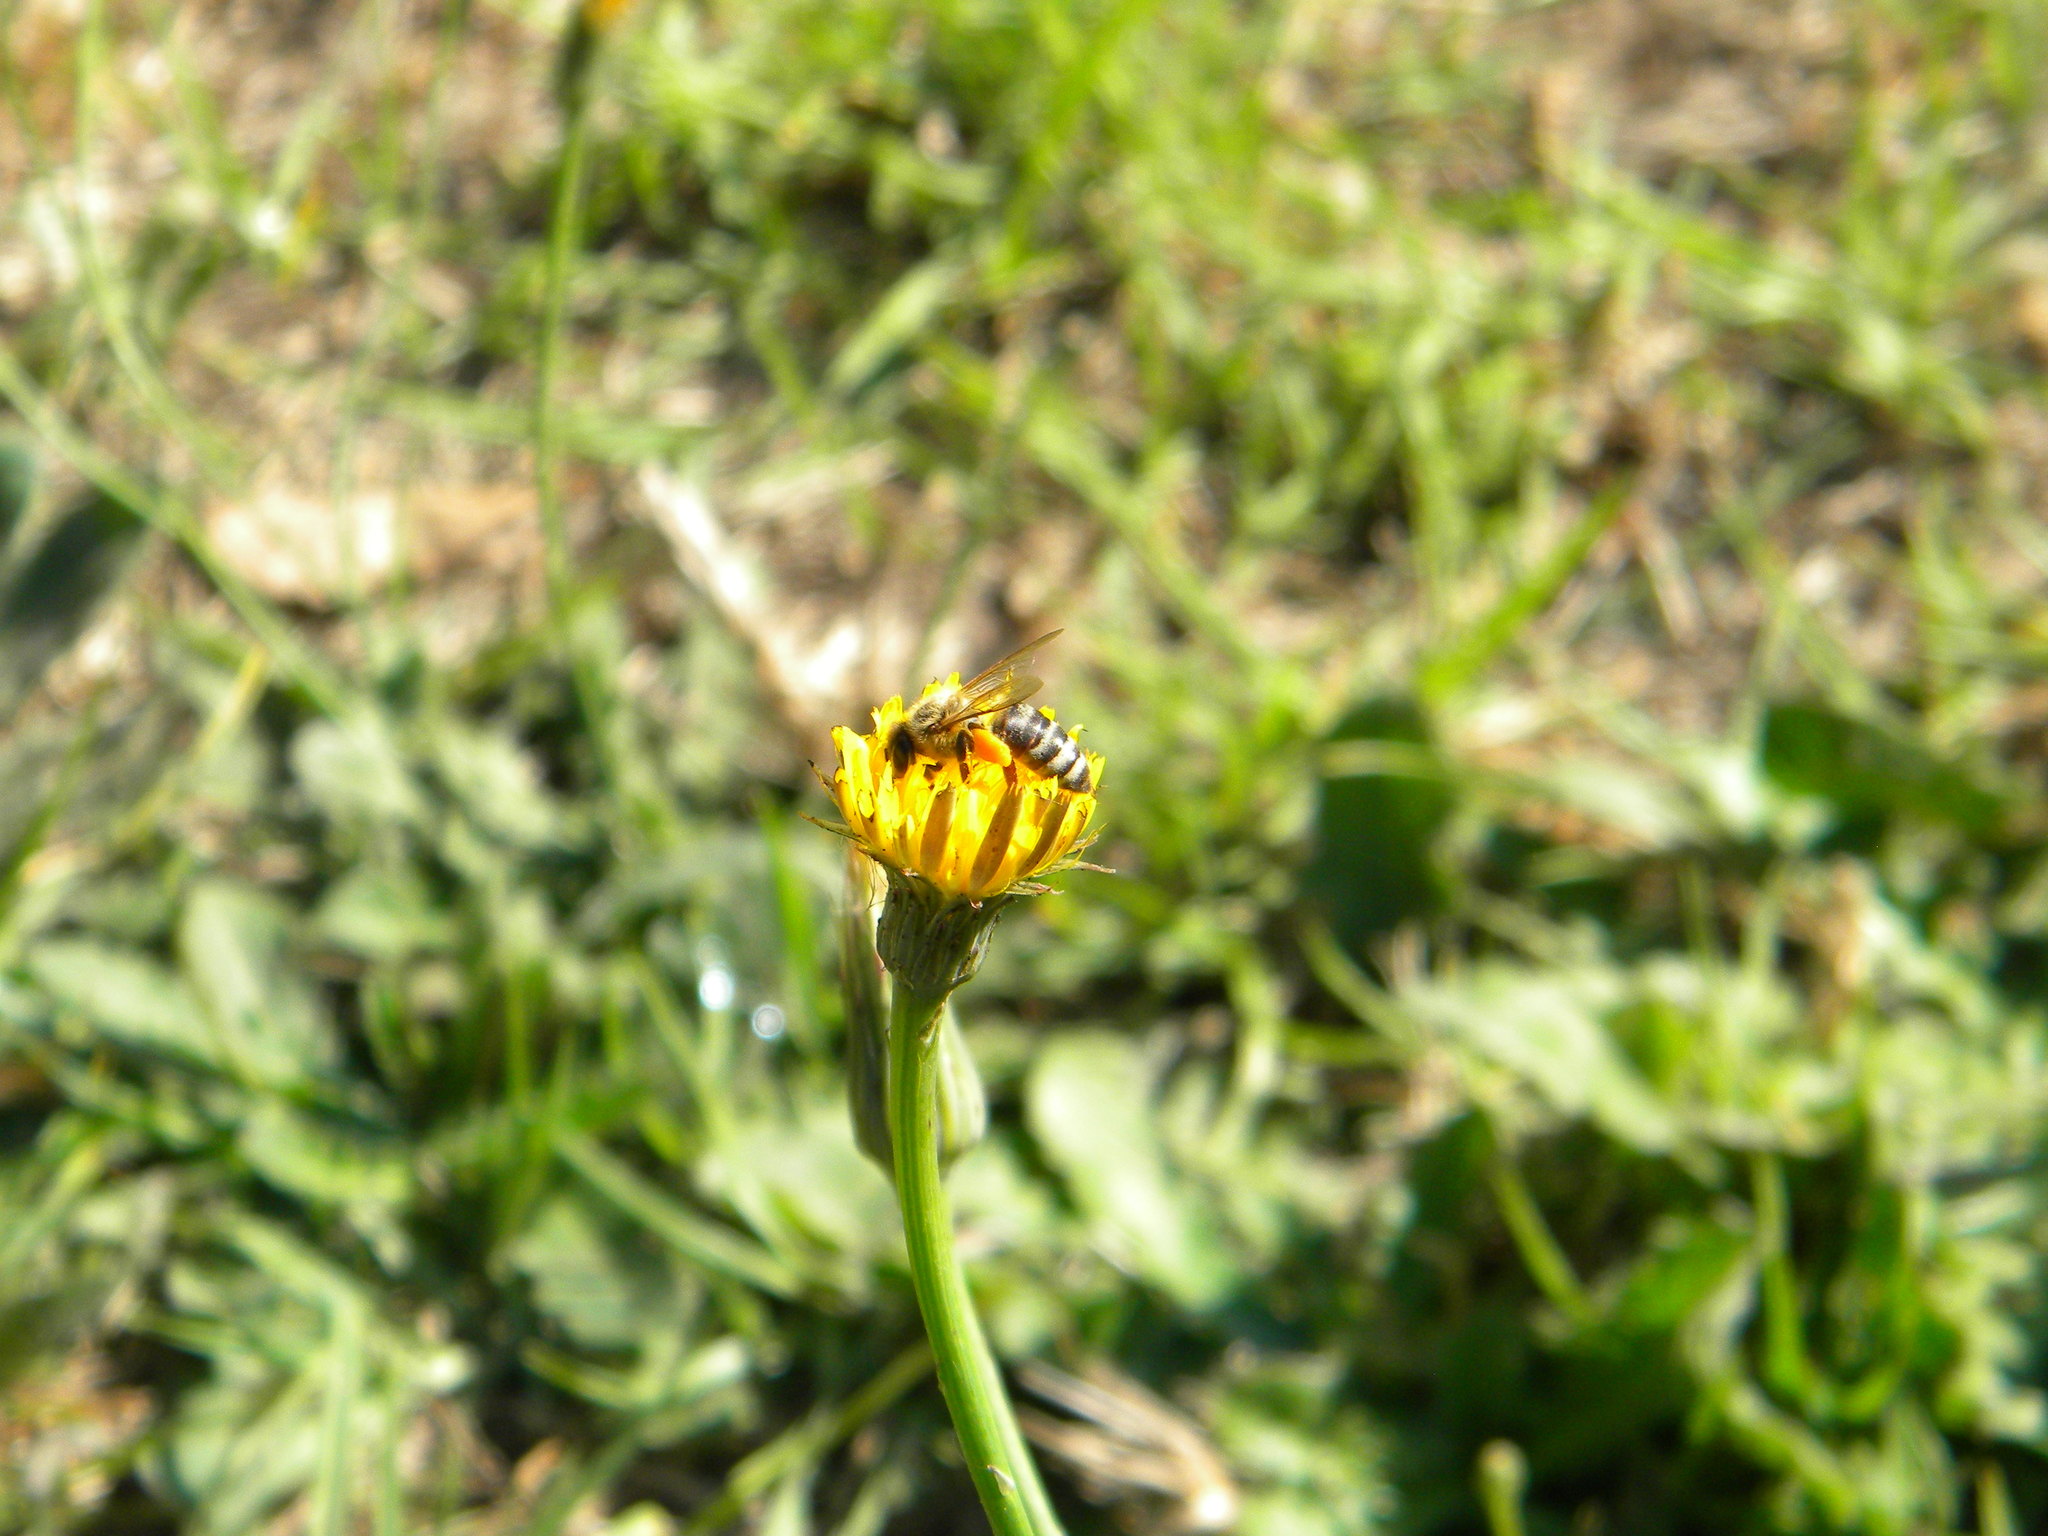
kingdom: Animalia
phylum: Arthropoda
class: Insecta
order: Hymenoptera
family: Apidae
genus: Apis
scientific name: Apis mellifera
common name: Honey bee
